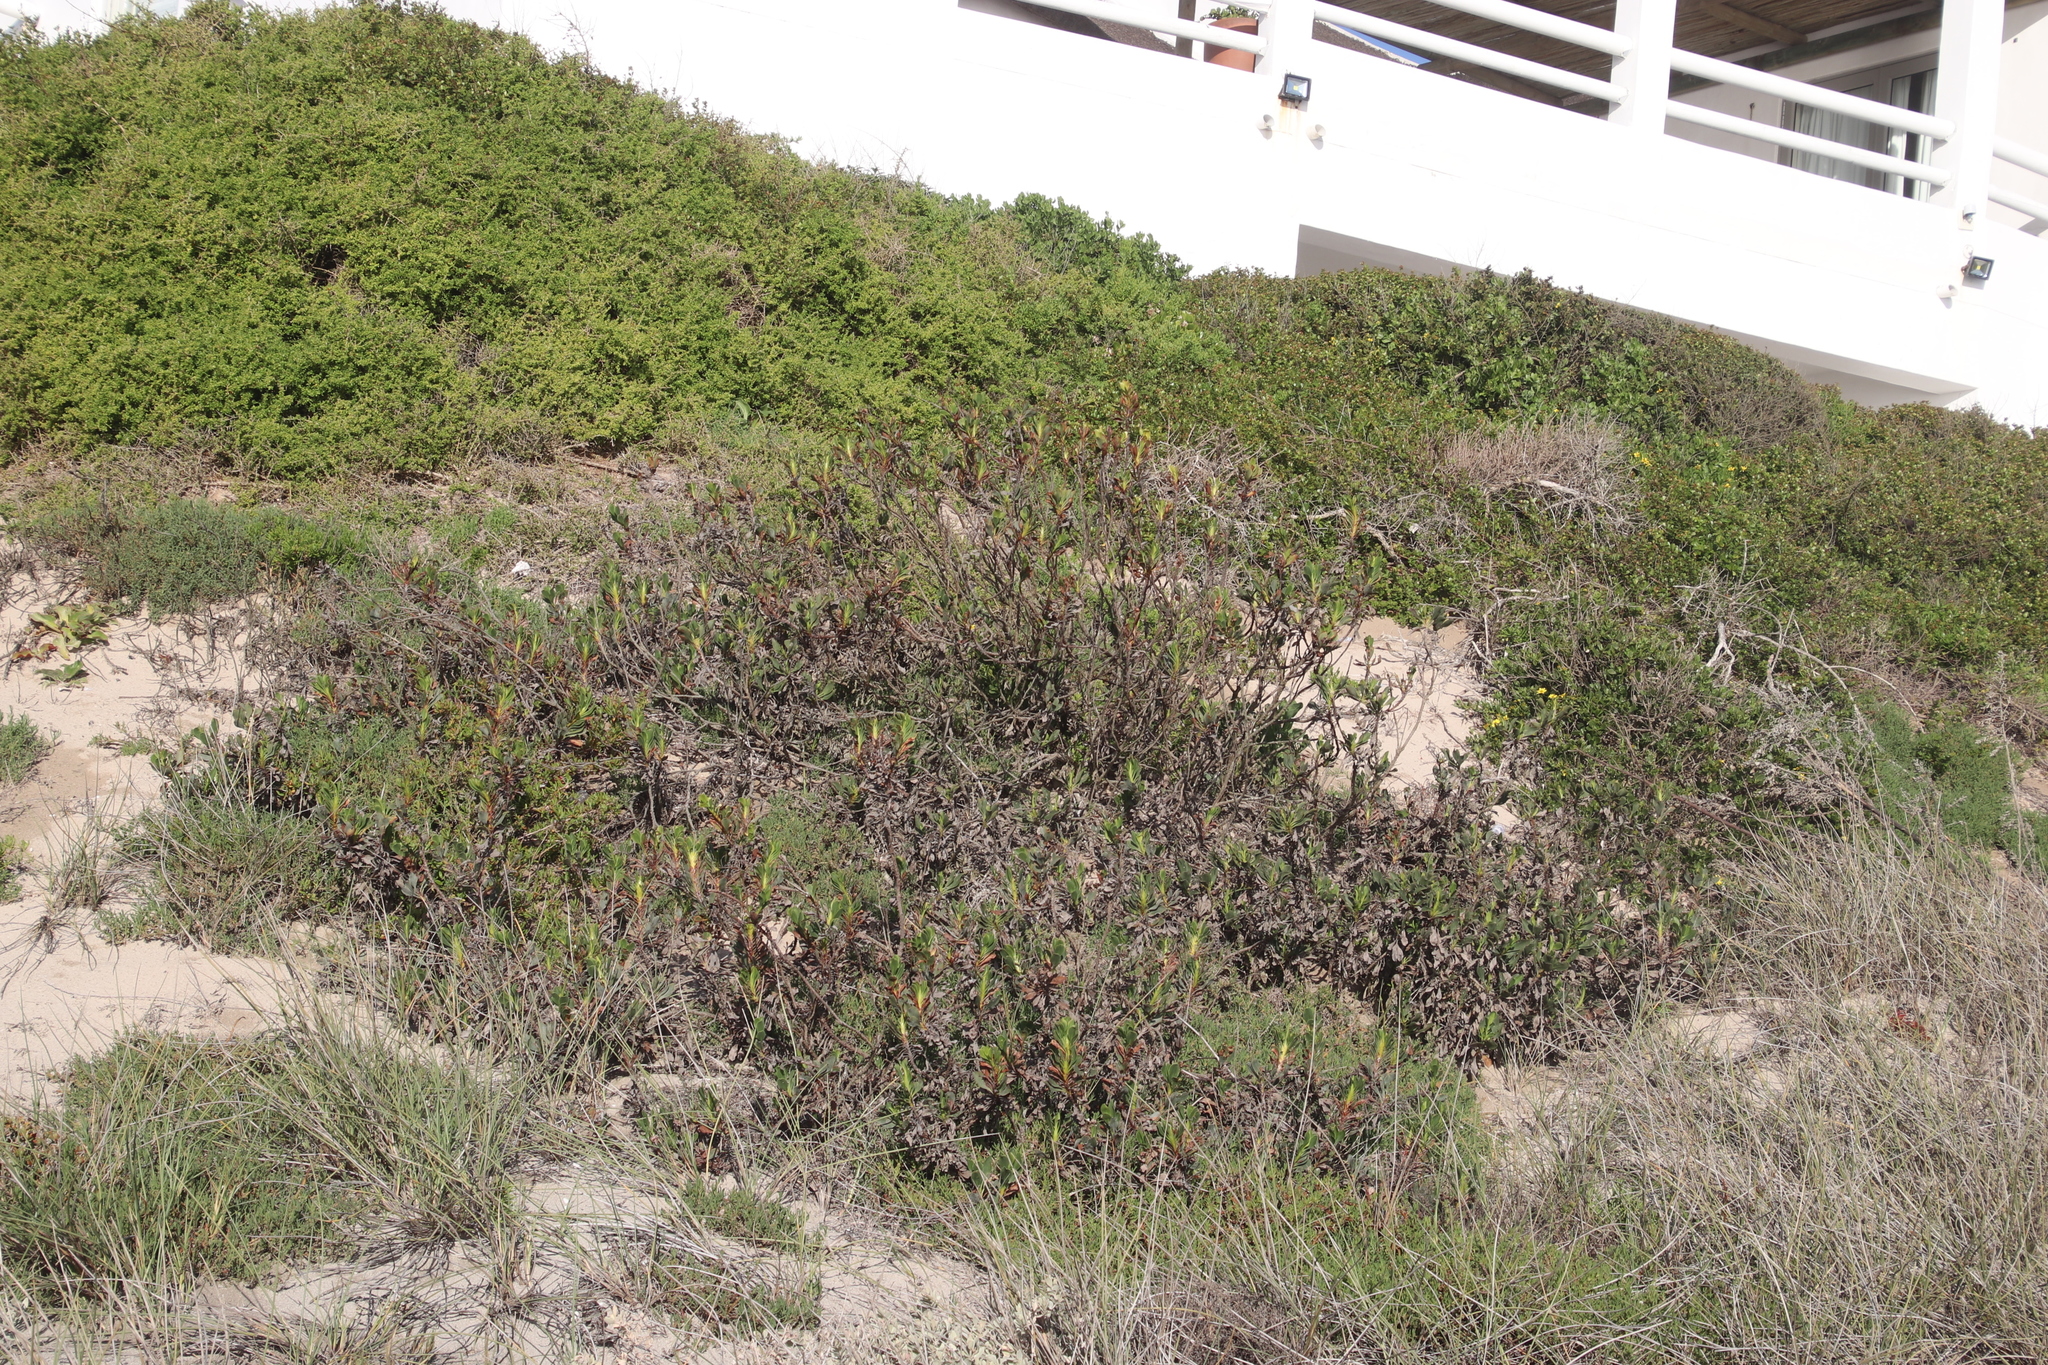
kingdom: Plantae
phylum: Tracheophyta
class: Magnoliopsida
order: Caryophyllales
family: Plumbaginaceae
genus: Limonium
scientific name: Limonium peregrinum
